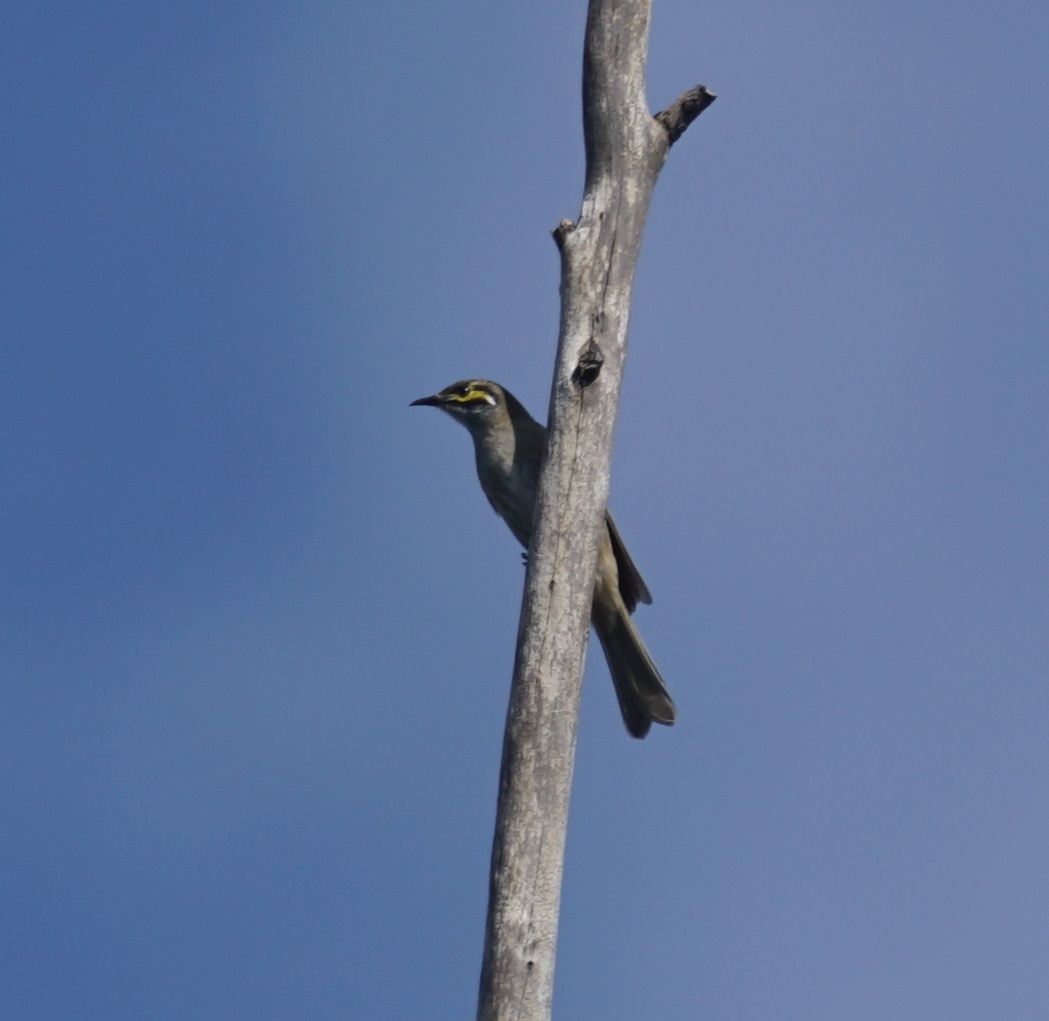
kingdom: Animalia
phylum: Chordata
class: Aves
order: Passeriformes
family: Meliphagidae
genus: Caligavis
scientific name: Caligavis chrysops
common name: Yellow-faced honeyeater
